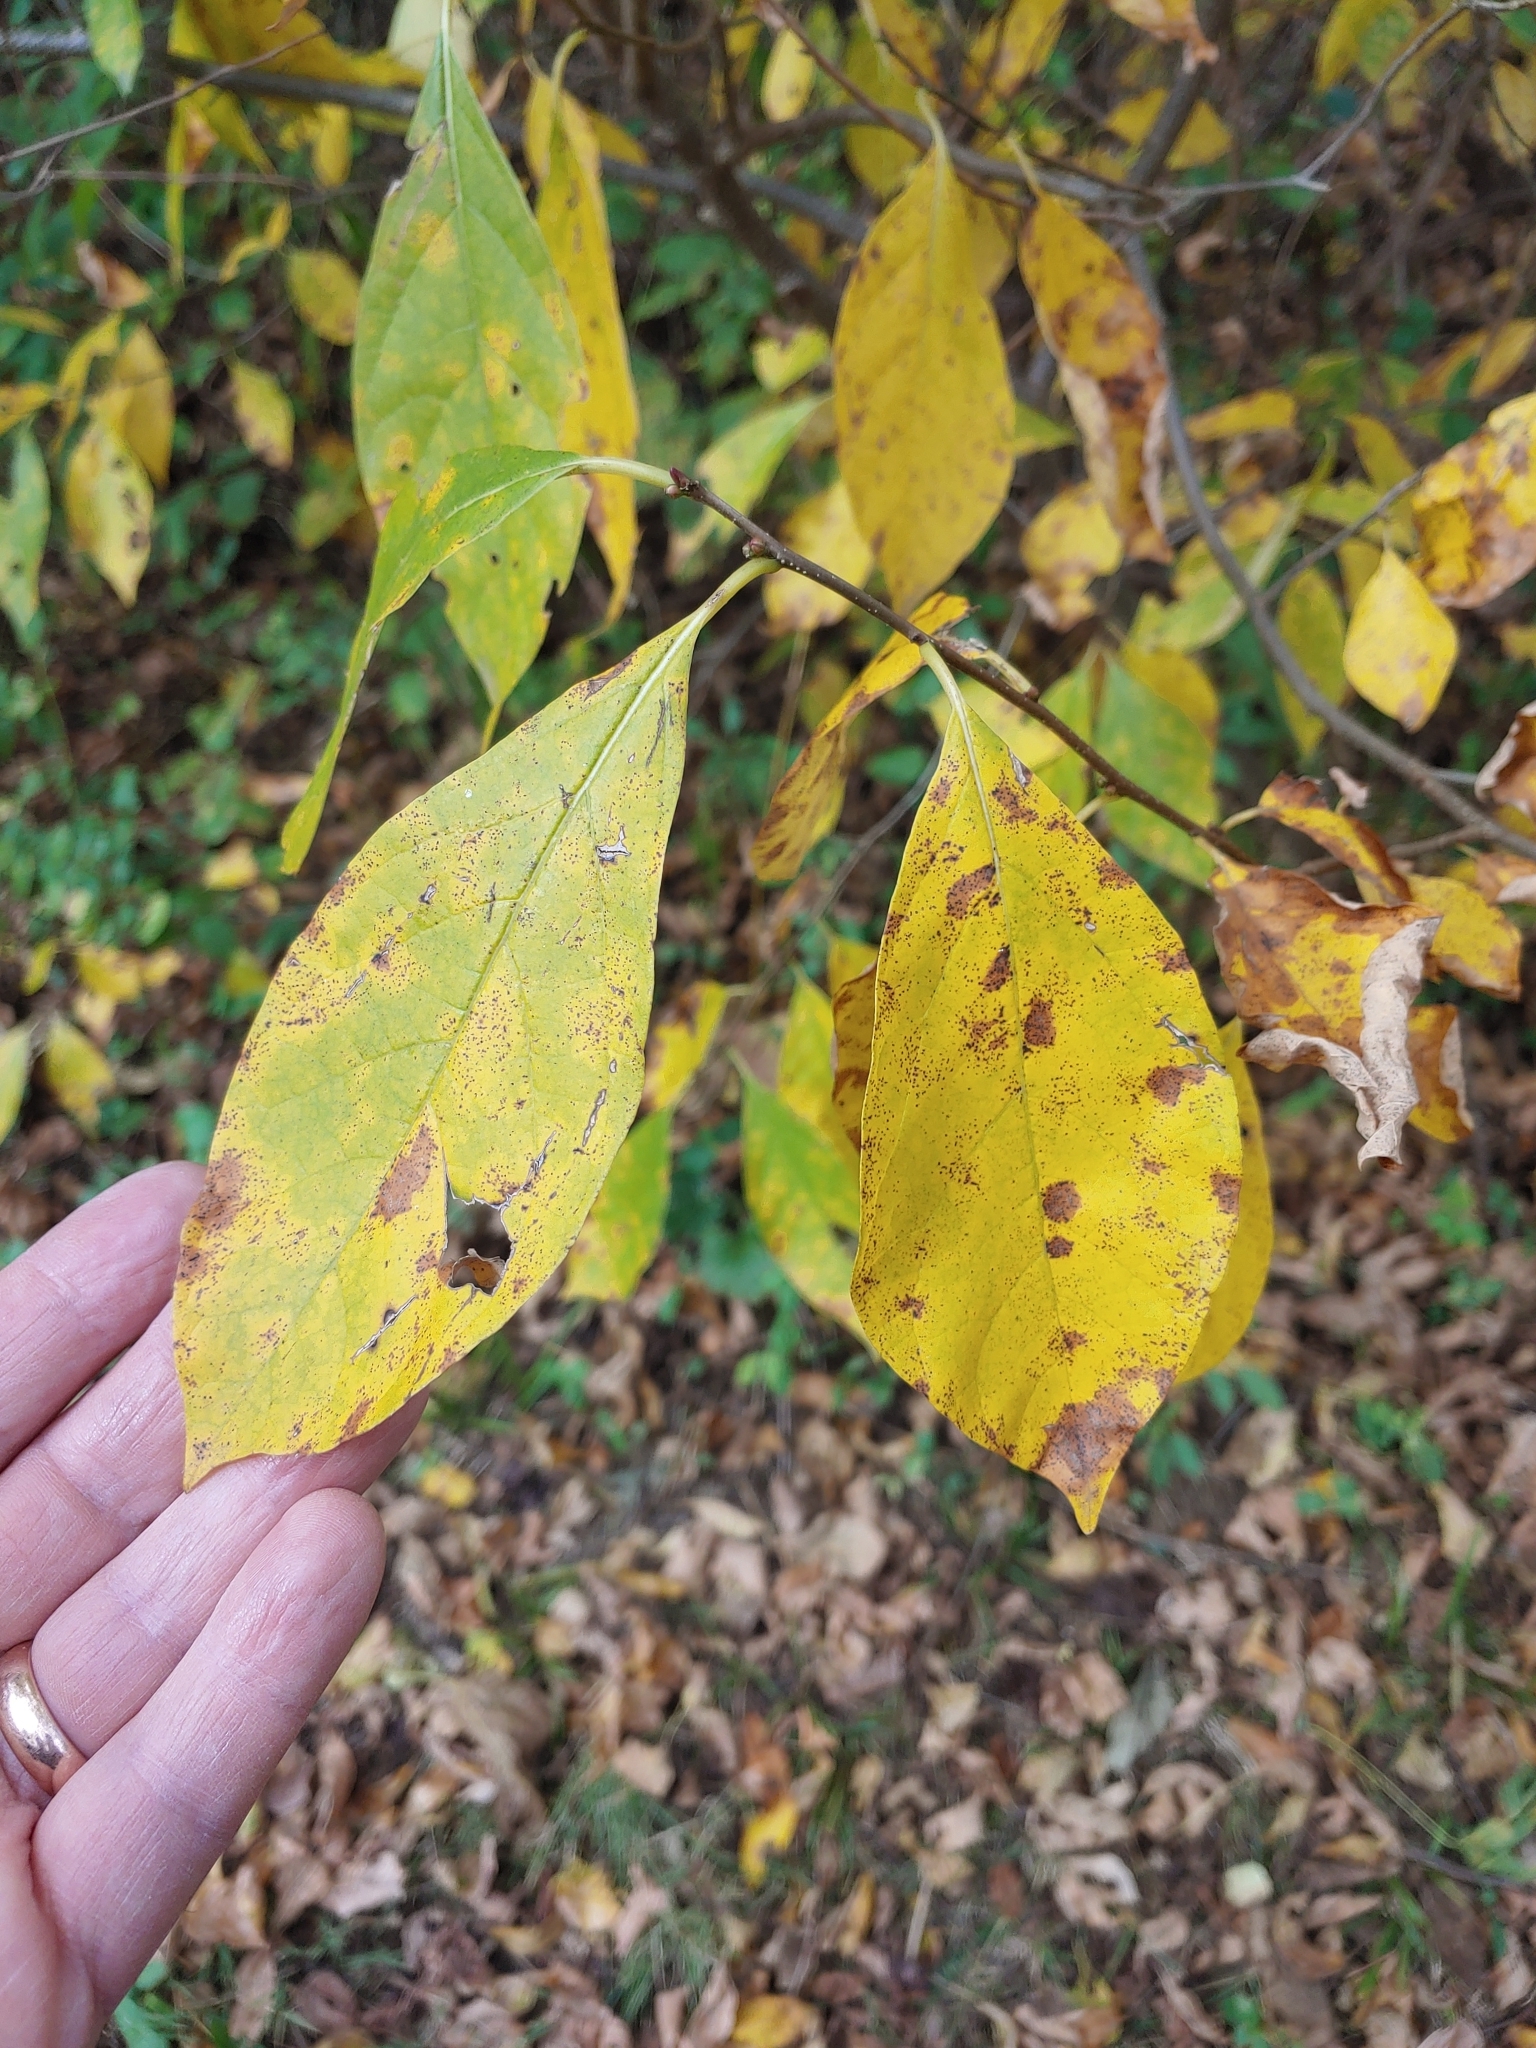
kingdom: Plantae
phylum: Tracheophyta
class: Magnoliopsida
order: Laurales
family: Lauraceae
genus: Lindera
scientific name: Lindera benzoin
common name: Spicebush
